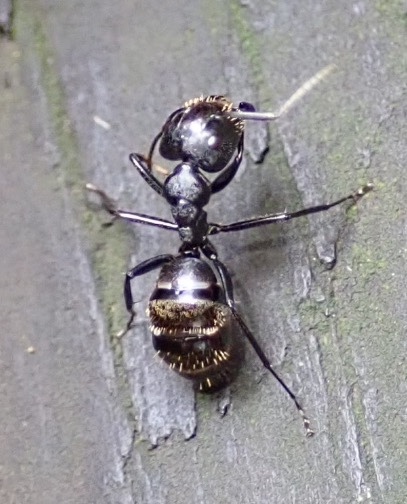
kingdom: Animalia
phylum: Arthropoda
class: Insecta
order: Hymenoptera
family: Formicidae
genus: Camponotus
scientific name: Camponotus arminius
